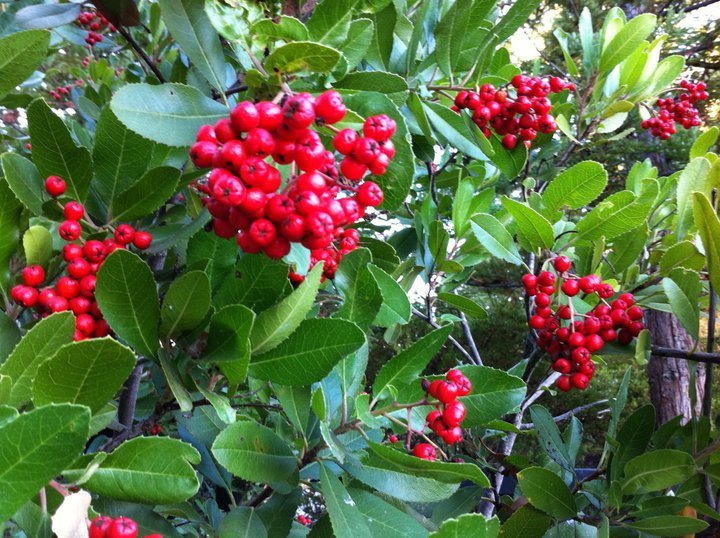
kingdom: Plantae
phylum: Tracheophyta
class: Magnoliopsida
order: Rosales
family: Rosaceae
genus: Heteromeles
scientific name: Heteromeles arbutifolia
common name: California-holly
